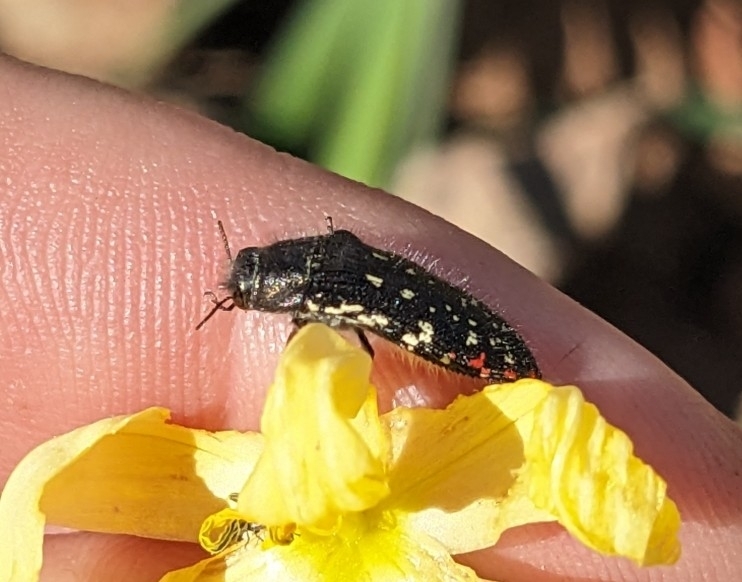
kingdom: Animalia
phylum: Arthropoda
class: Insecta
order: Coleoptera
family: Buprestidae
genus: Acmaeodera
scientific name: Acmaeodera rubronotata
